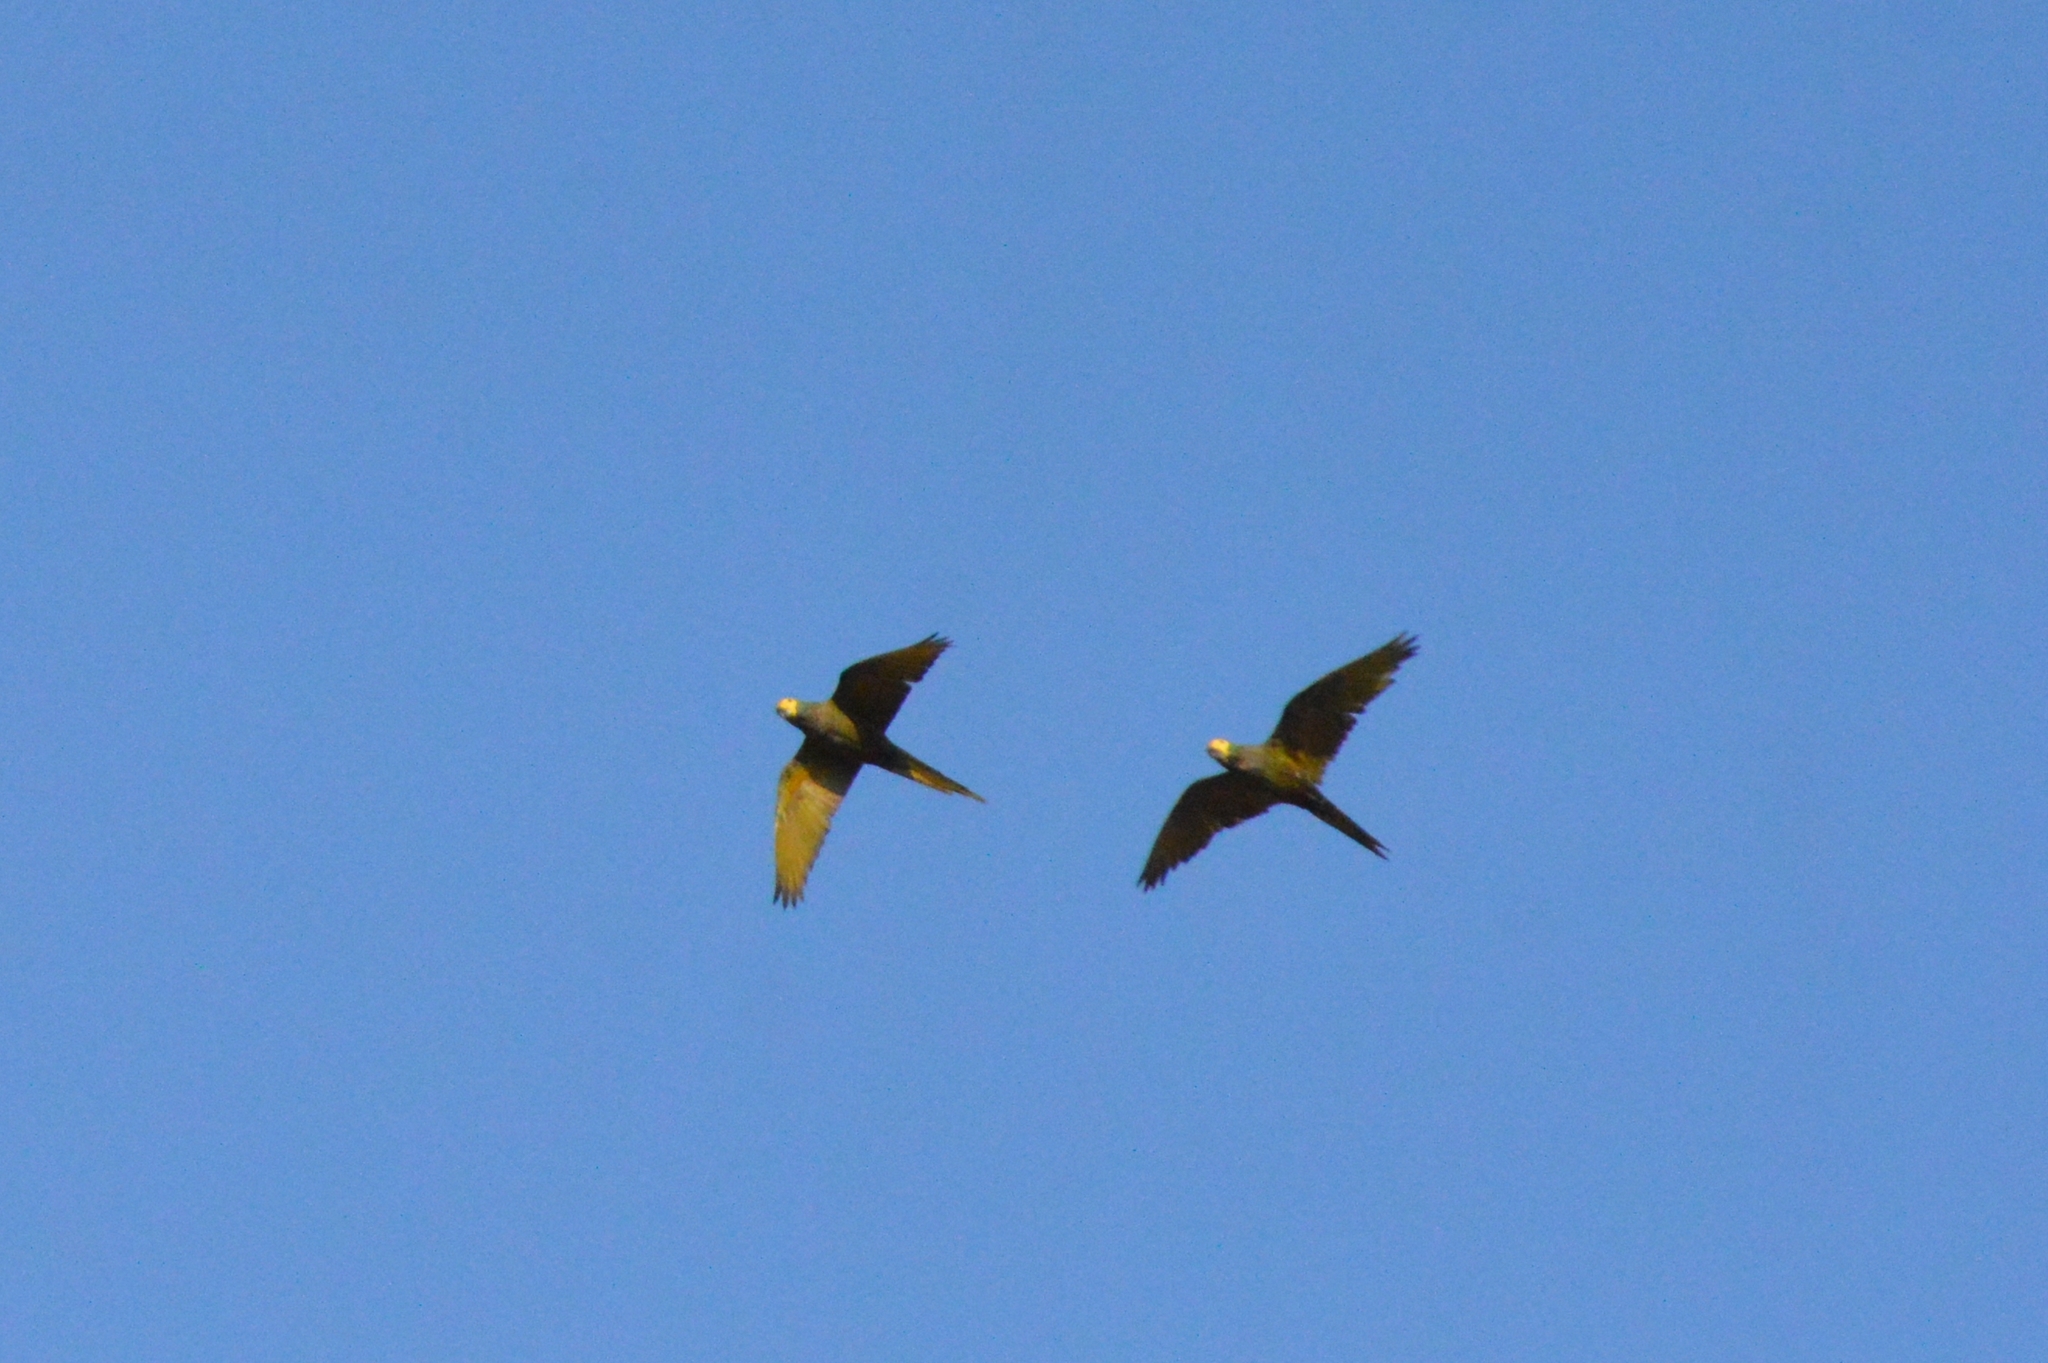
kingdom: Animalia
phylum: Chordata
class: Aves
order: Psittaciformes
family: Psittacidae
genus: Orthopsittaca
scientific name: Orthopsittaca manilata
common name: Red-bellied macaw
